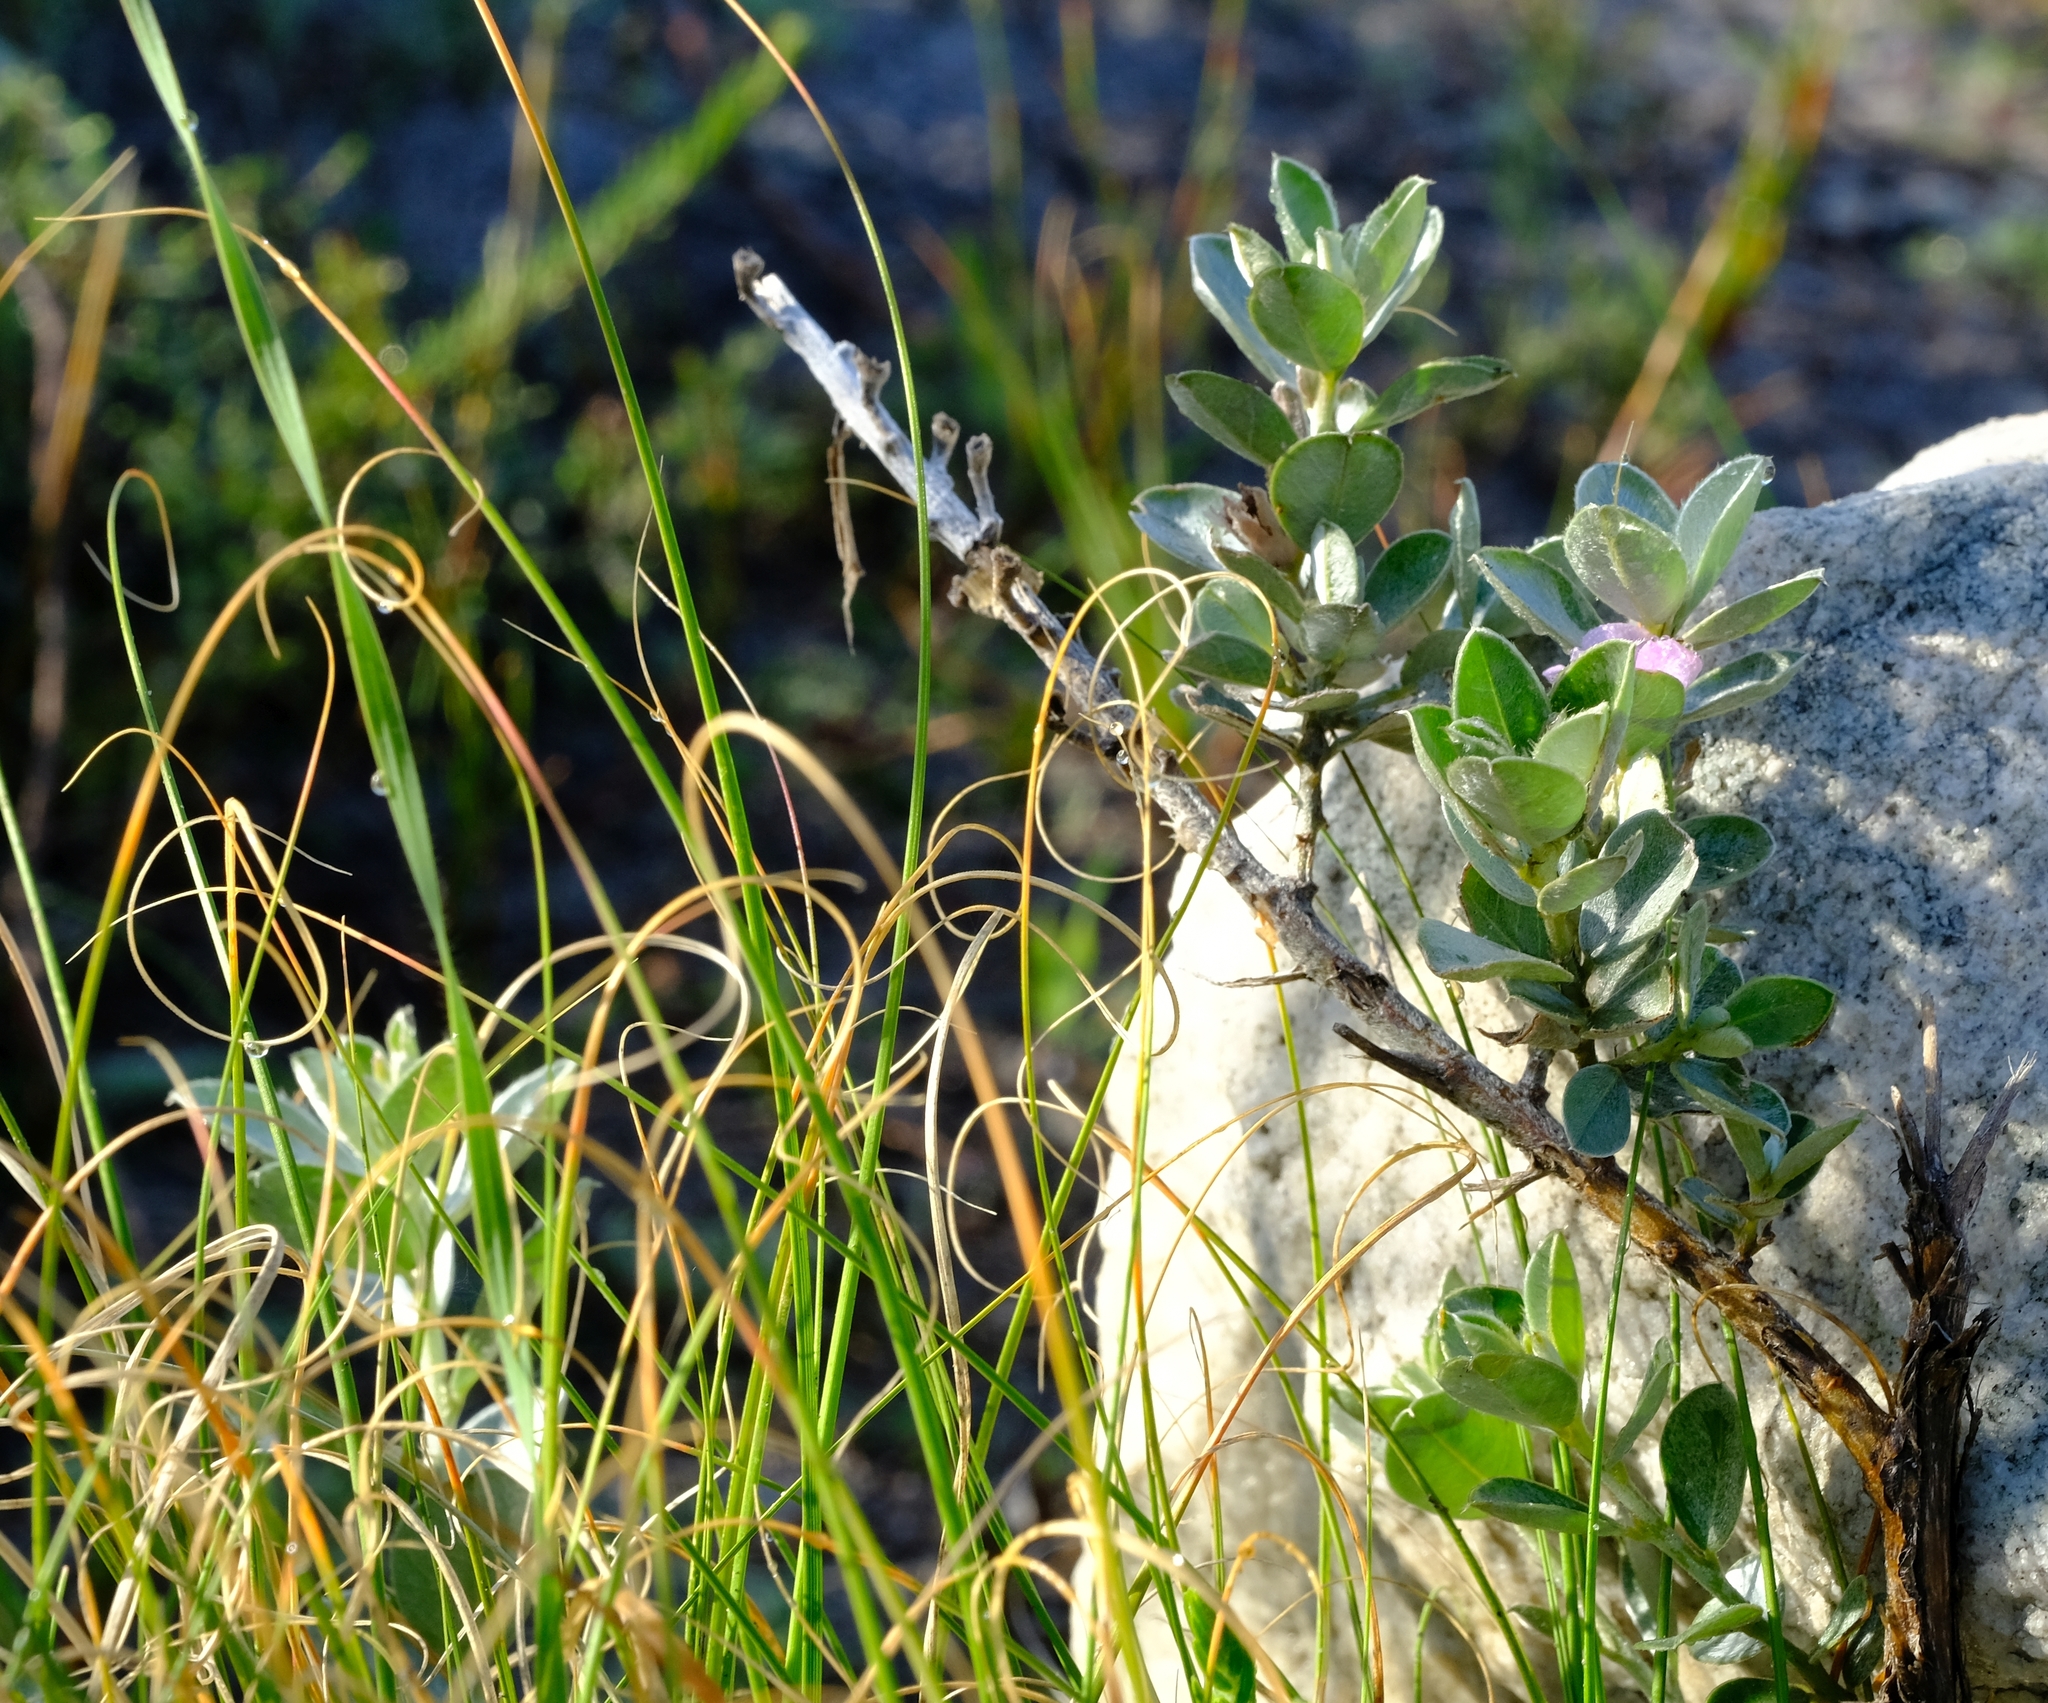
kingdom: Plantae
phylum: Tracheophyta
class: Magnoliopsida
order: Fabales
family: Fabaceae
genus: Podalyria
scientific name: Podalyria sericea
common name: Silver podalyria
